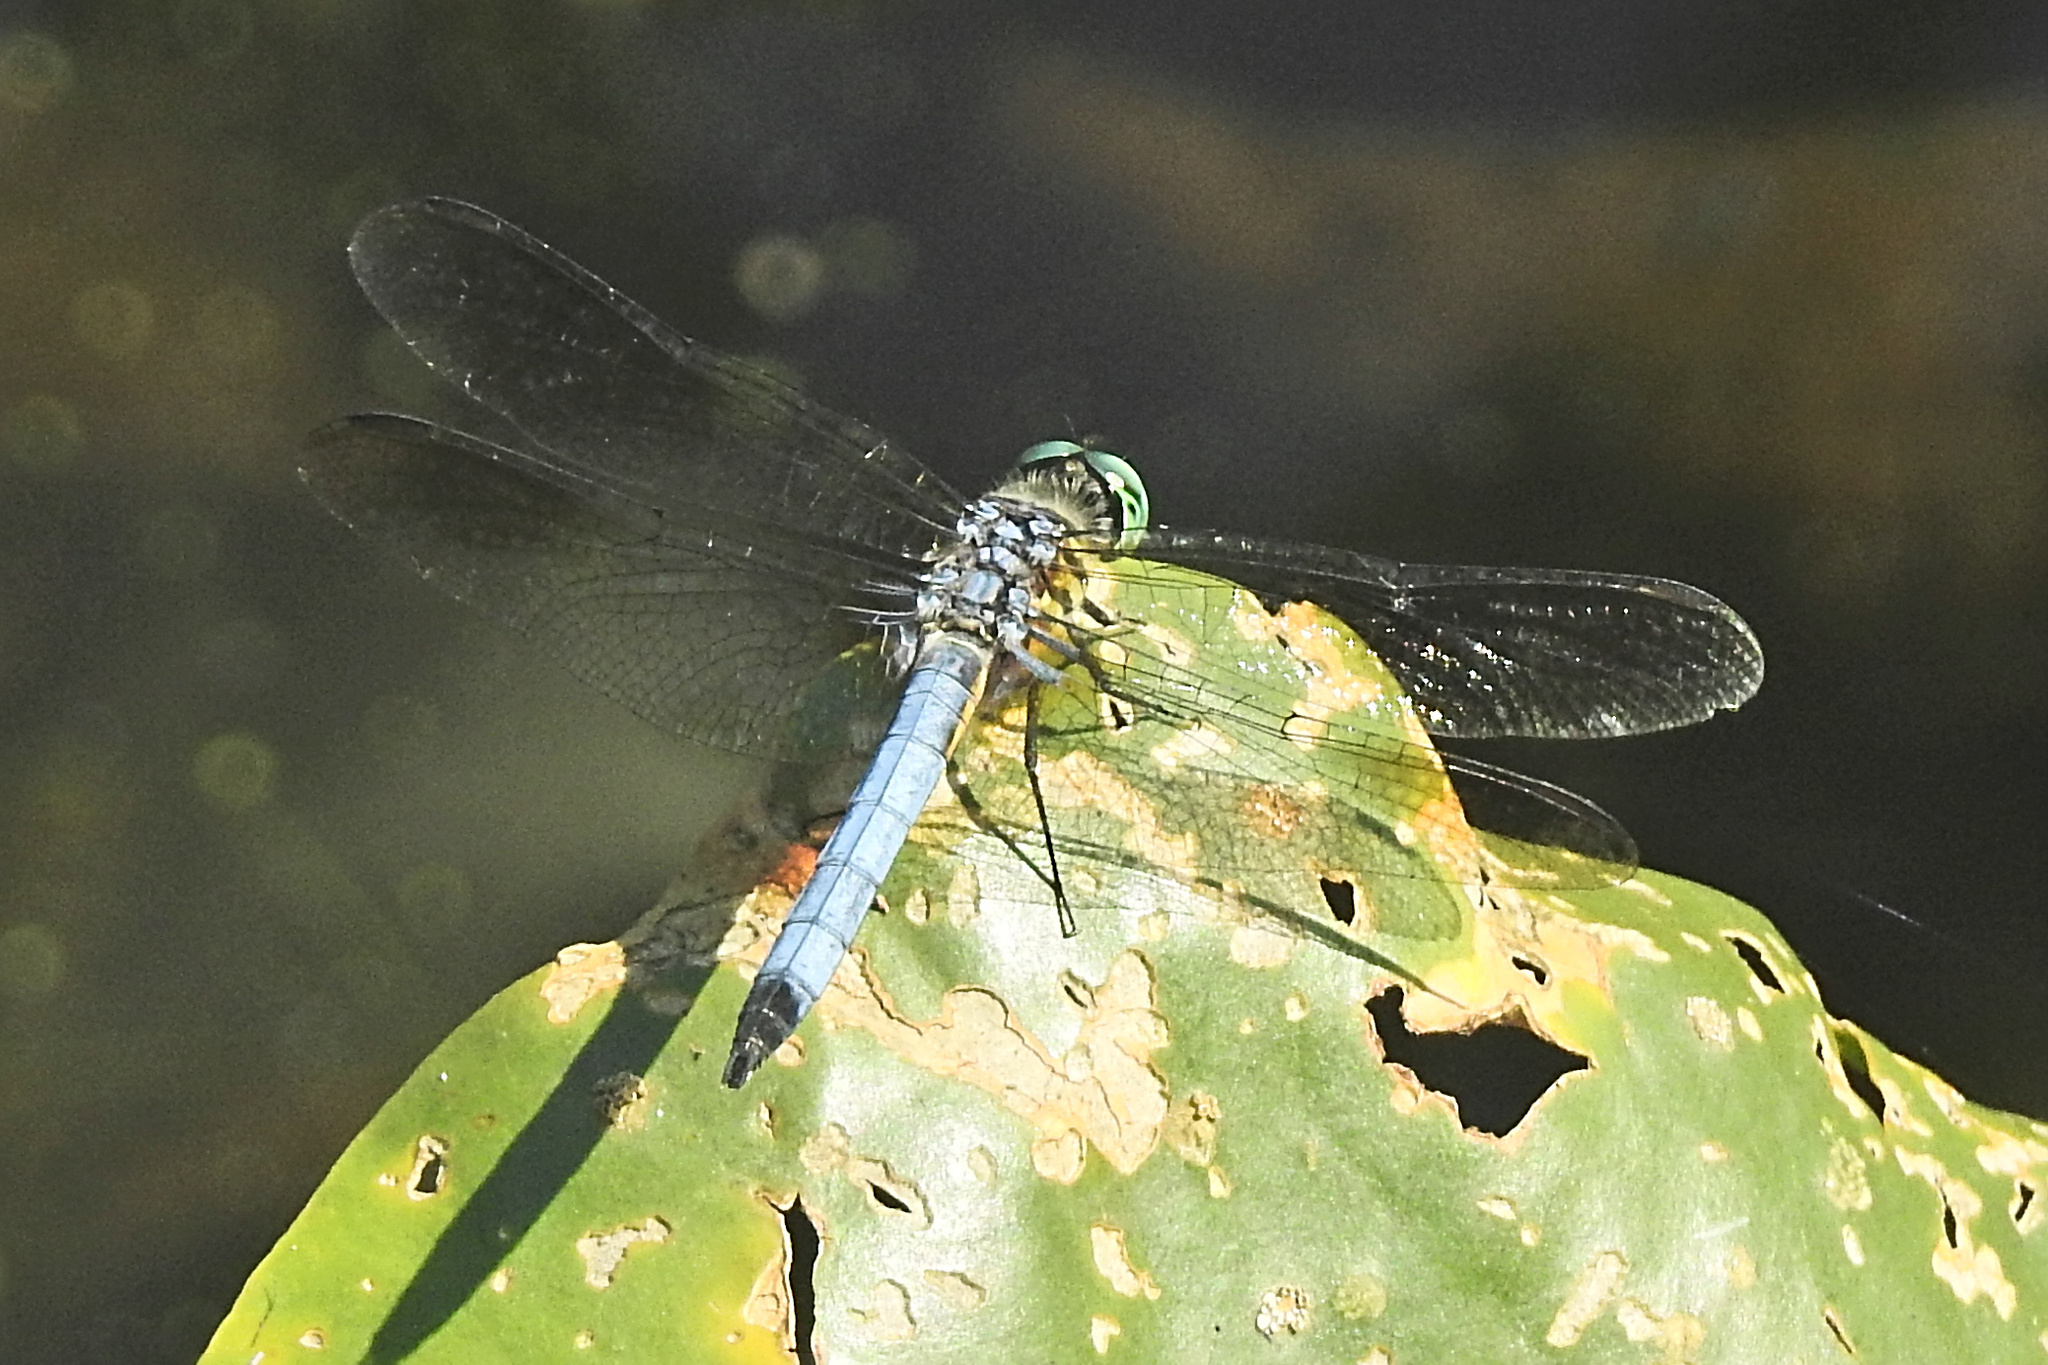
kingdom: Animalia
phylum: Arthropoda
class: Insecta
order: Odonata
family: Libellulidae
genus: Pachydiplax
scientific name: Pachydiplax longipennis
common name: Blue dasher
